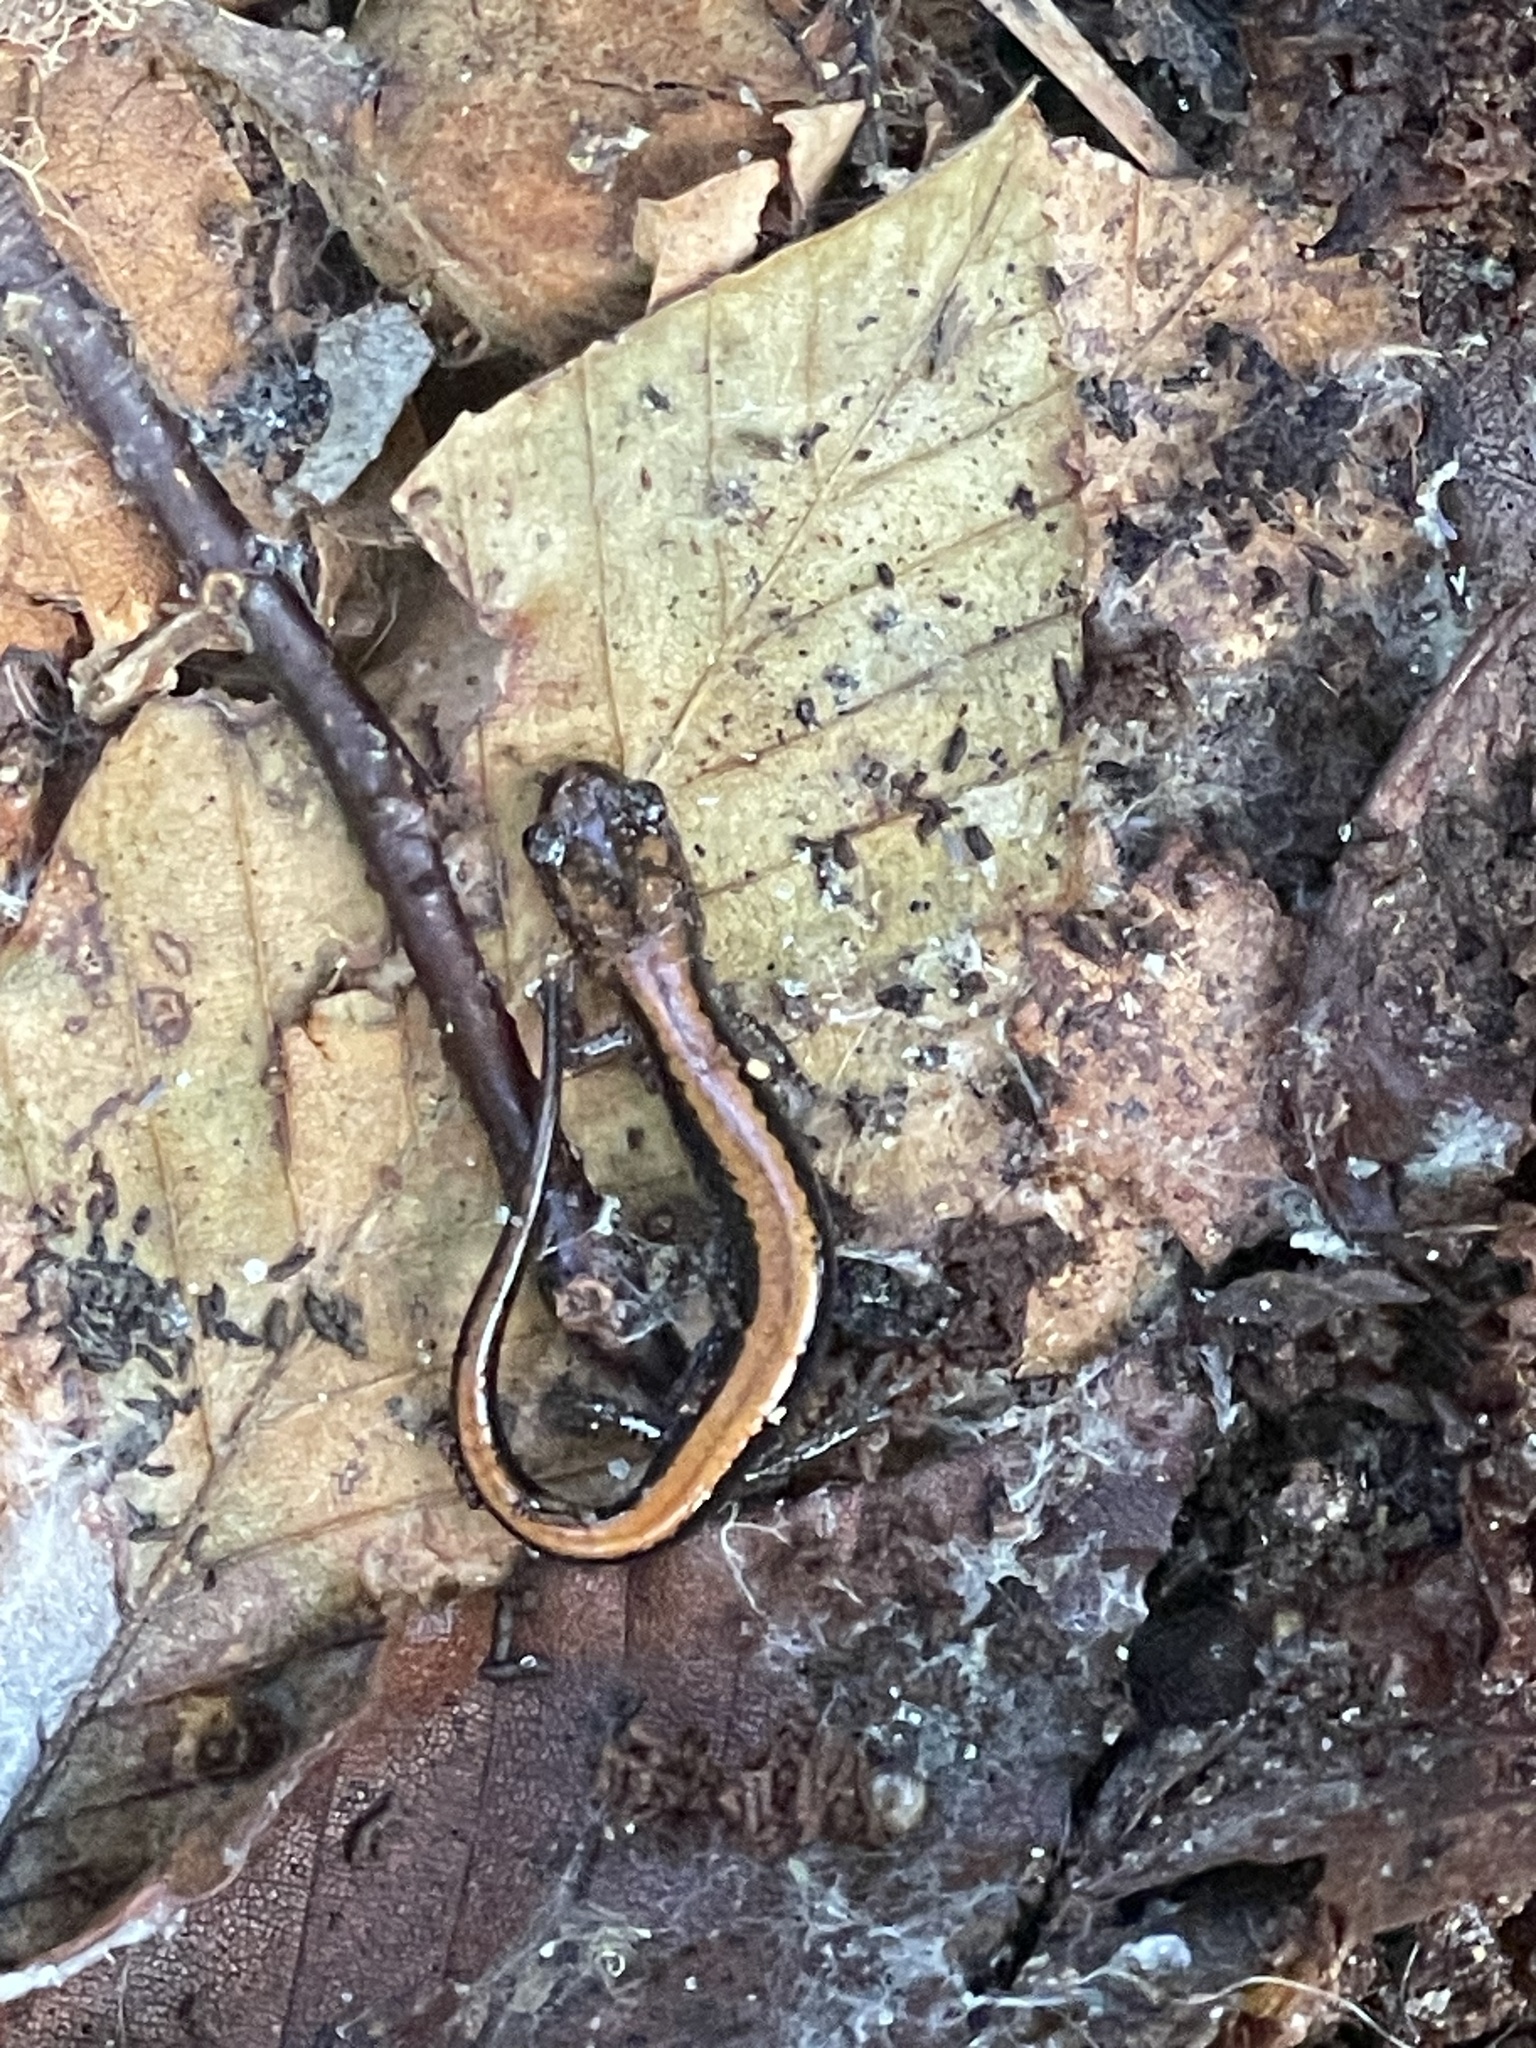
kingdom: Animalia
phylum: Chordata
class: Amphibia
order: Caudata
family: Plethodontidae
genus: Plethodon
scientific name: Plethodon cinereus
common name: Redback salamander
